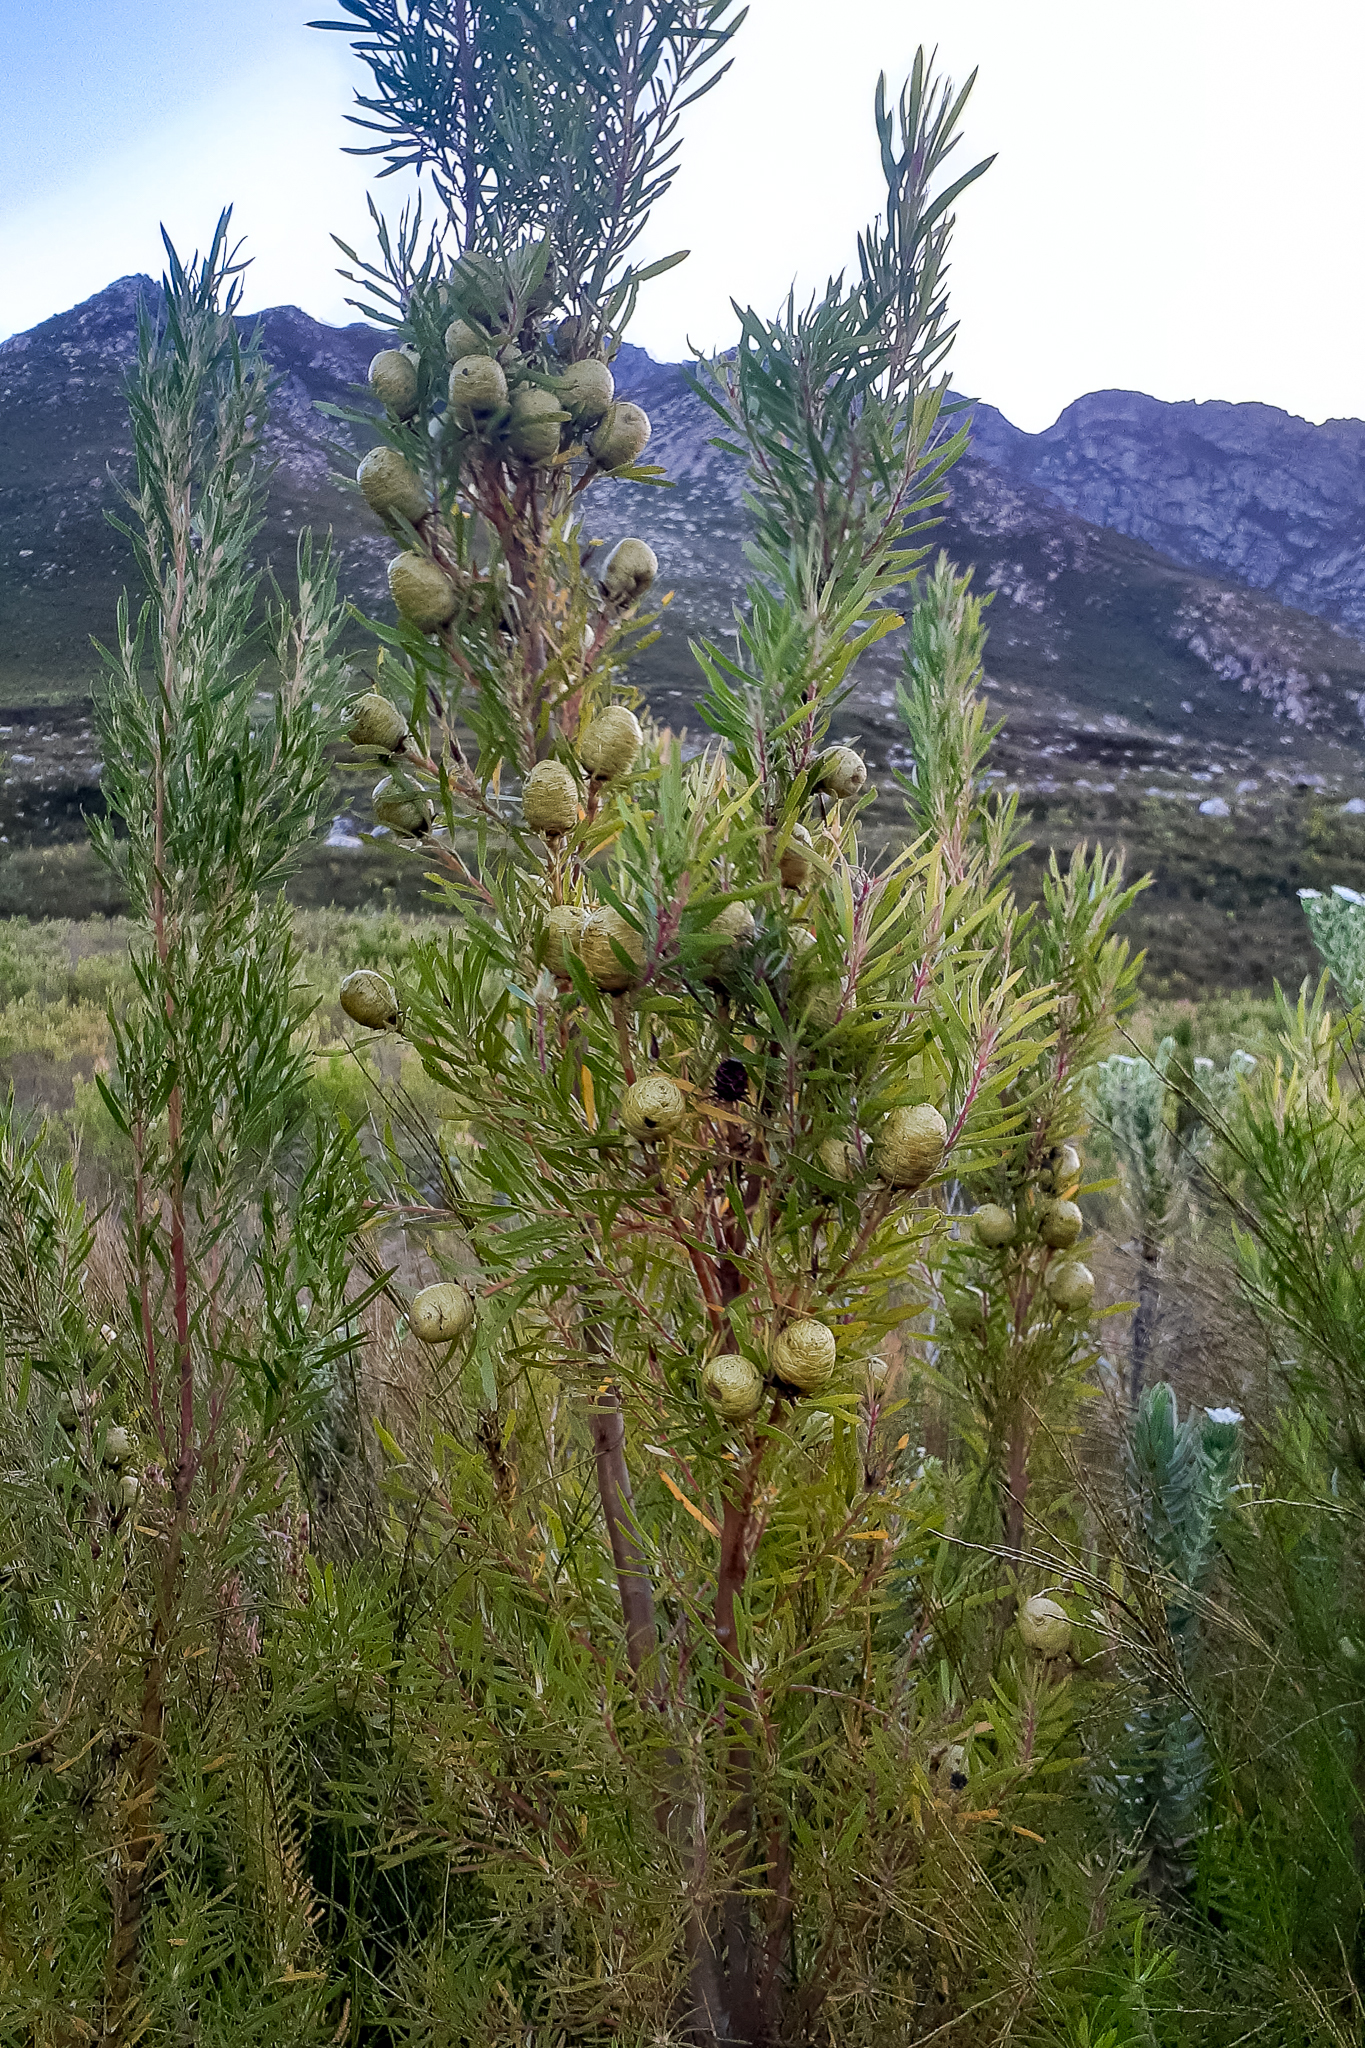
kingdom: Plantae
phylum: Tracheophyta
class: Magnoliopsida
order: Proteales
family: Proteaceae
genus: Leucadendron
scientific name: Leucadendron salicifolium
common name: Common stream conebush
